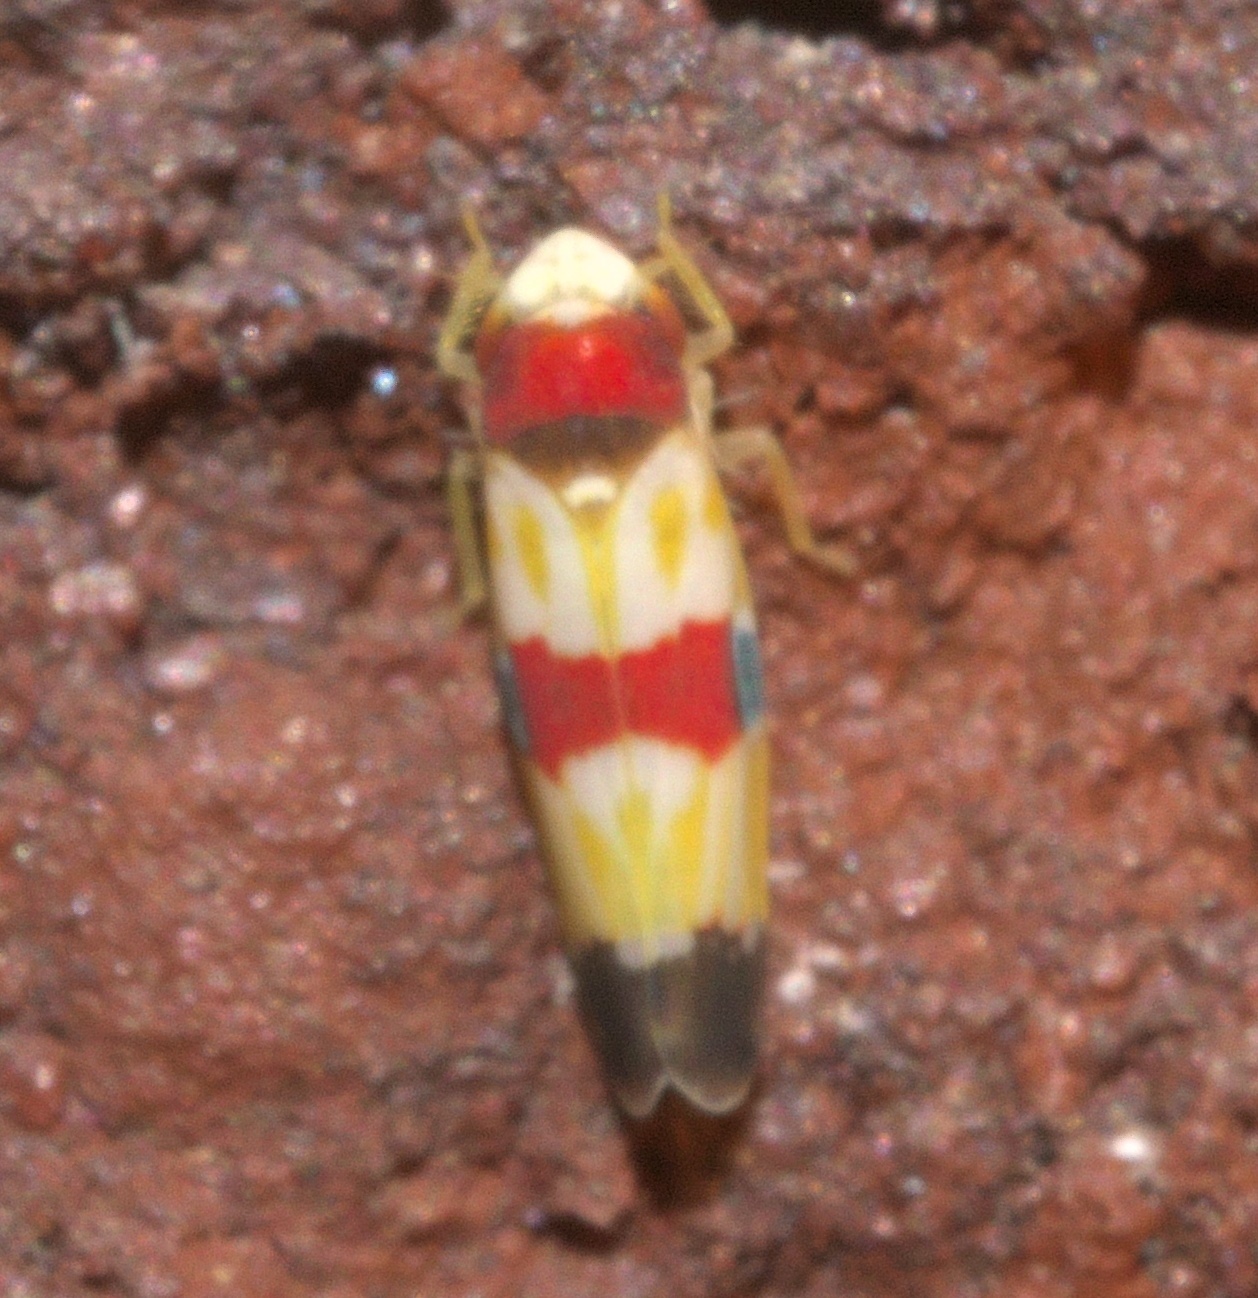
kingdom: Animalia
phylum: Arthropoda
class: Insecta
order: Hemiptera
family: Cicadellidae
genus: Erythroneura
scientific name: Erythroneura diva
